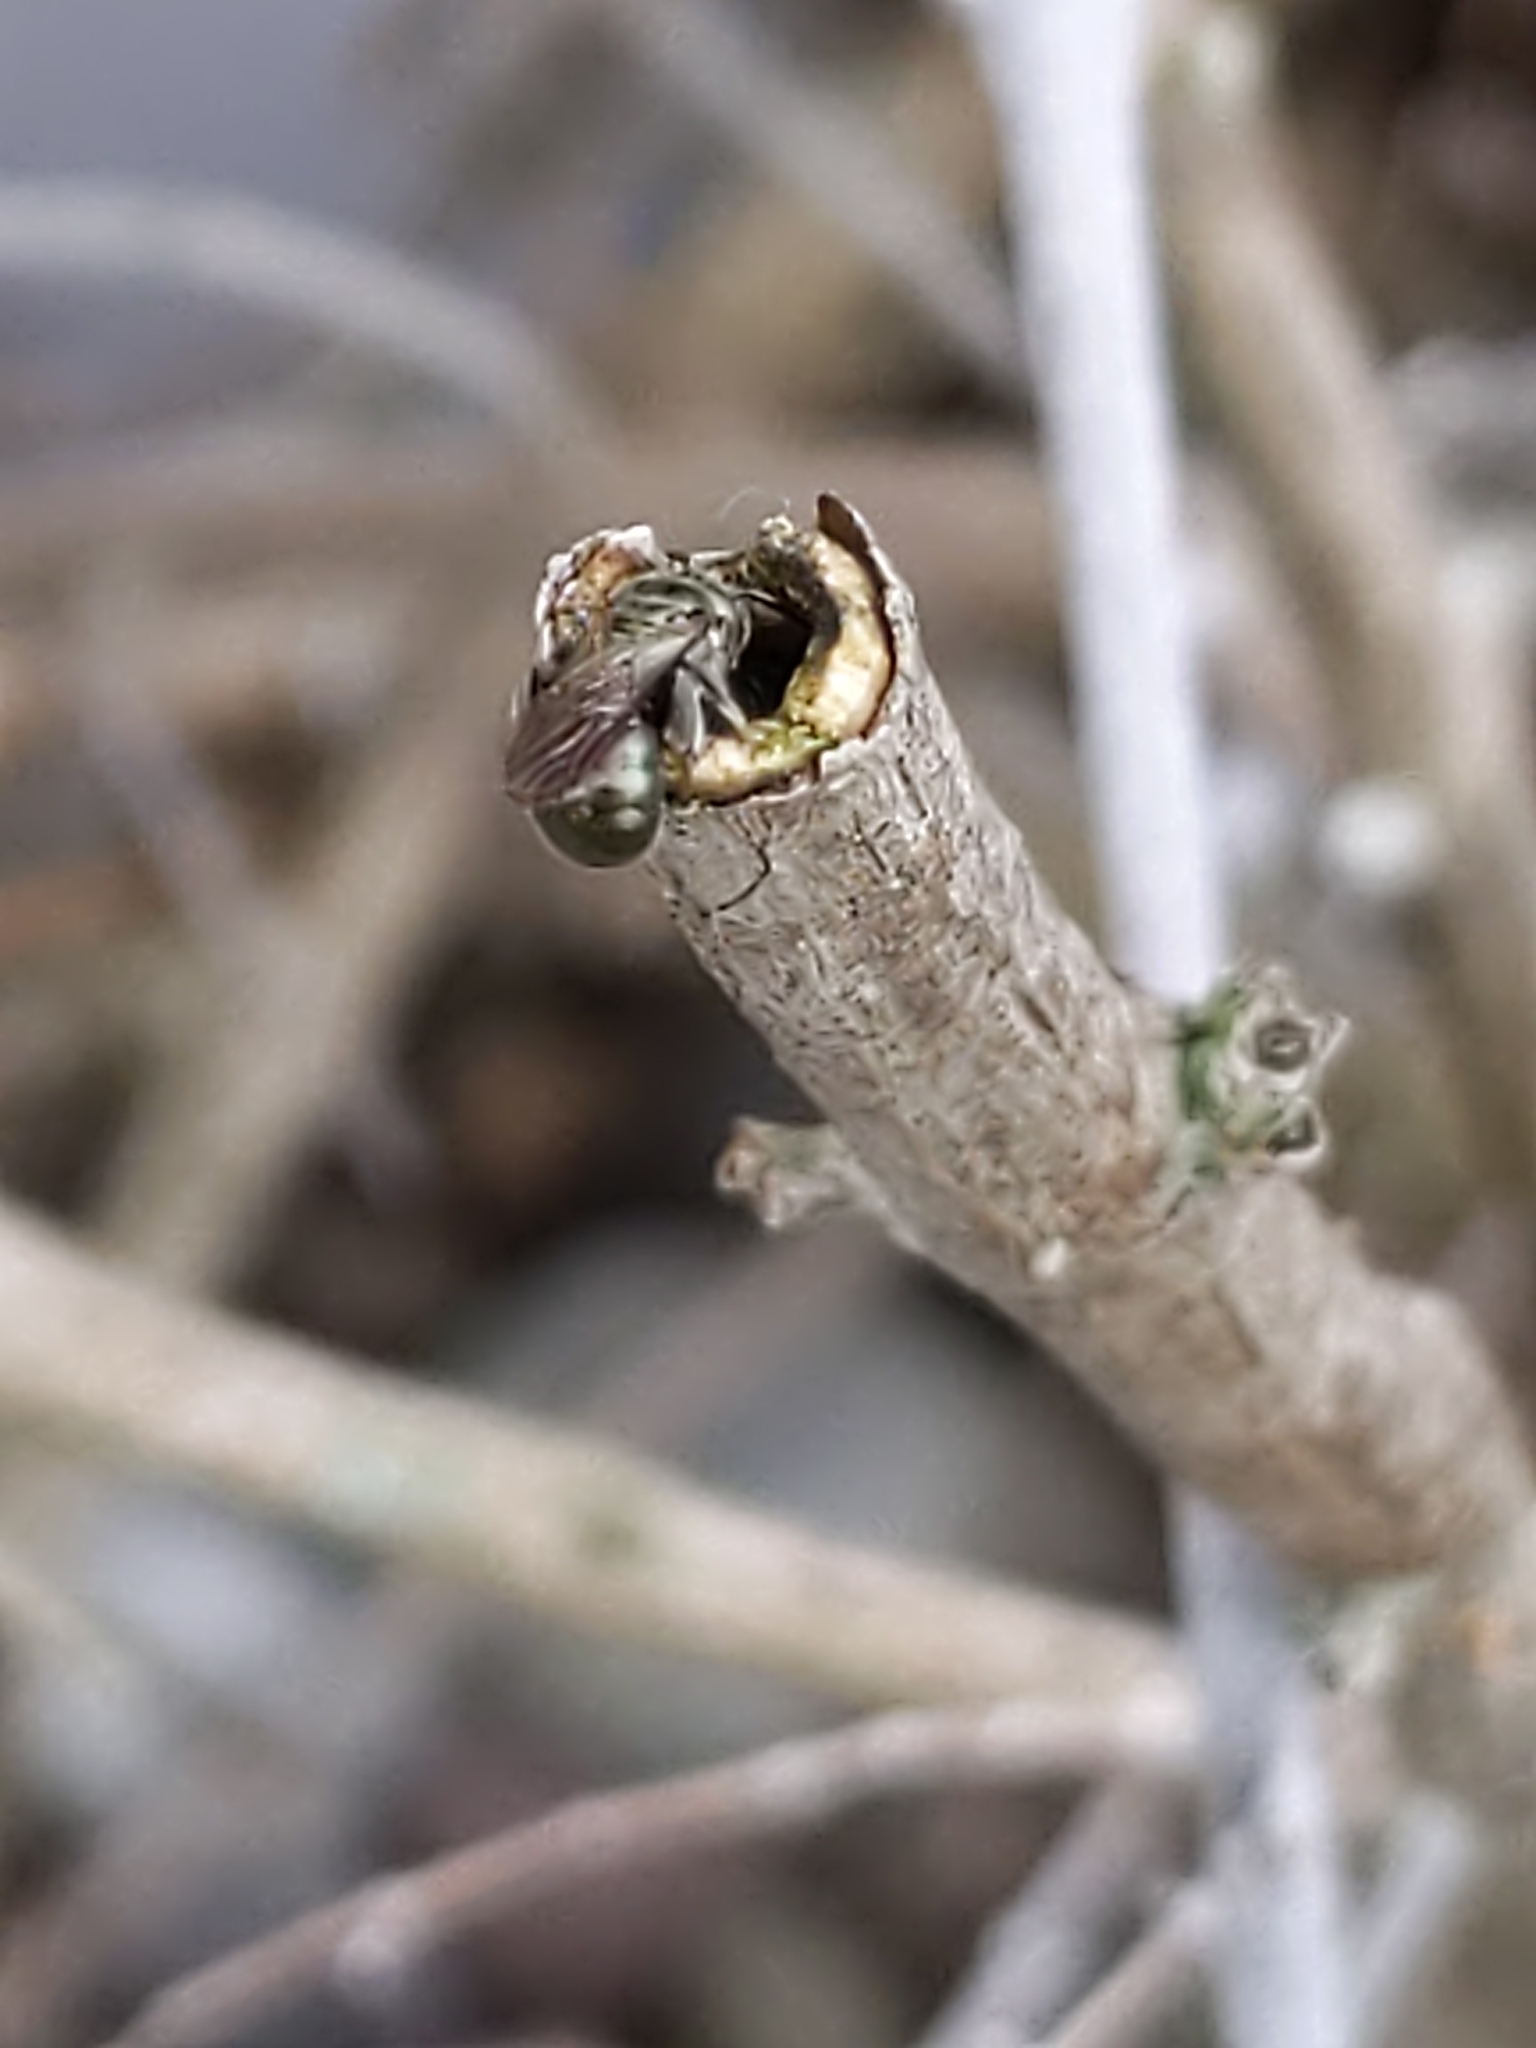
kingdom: Animalia
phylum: Arthropoda
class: Insecta
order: Hymenoptera
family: Apidae
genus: Zadontomerus
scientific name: Zadontomerus
